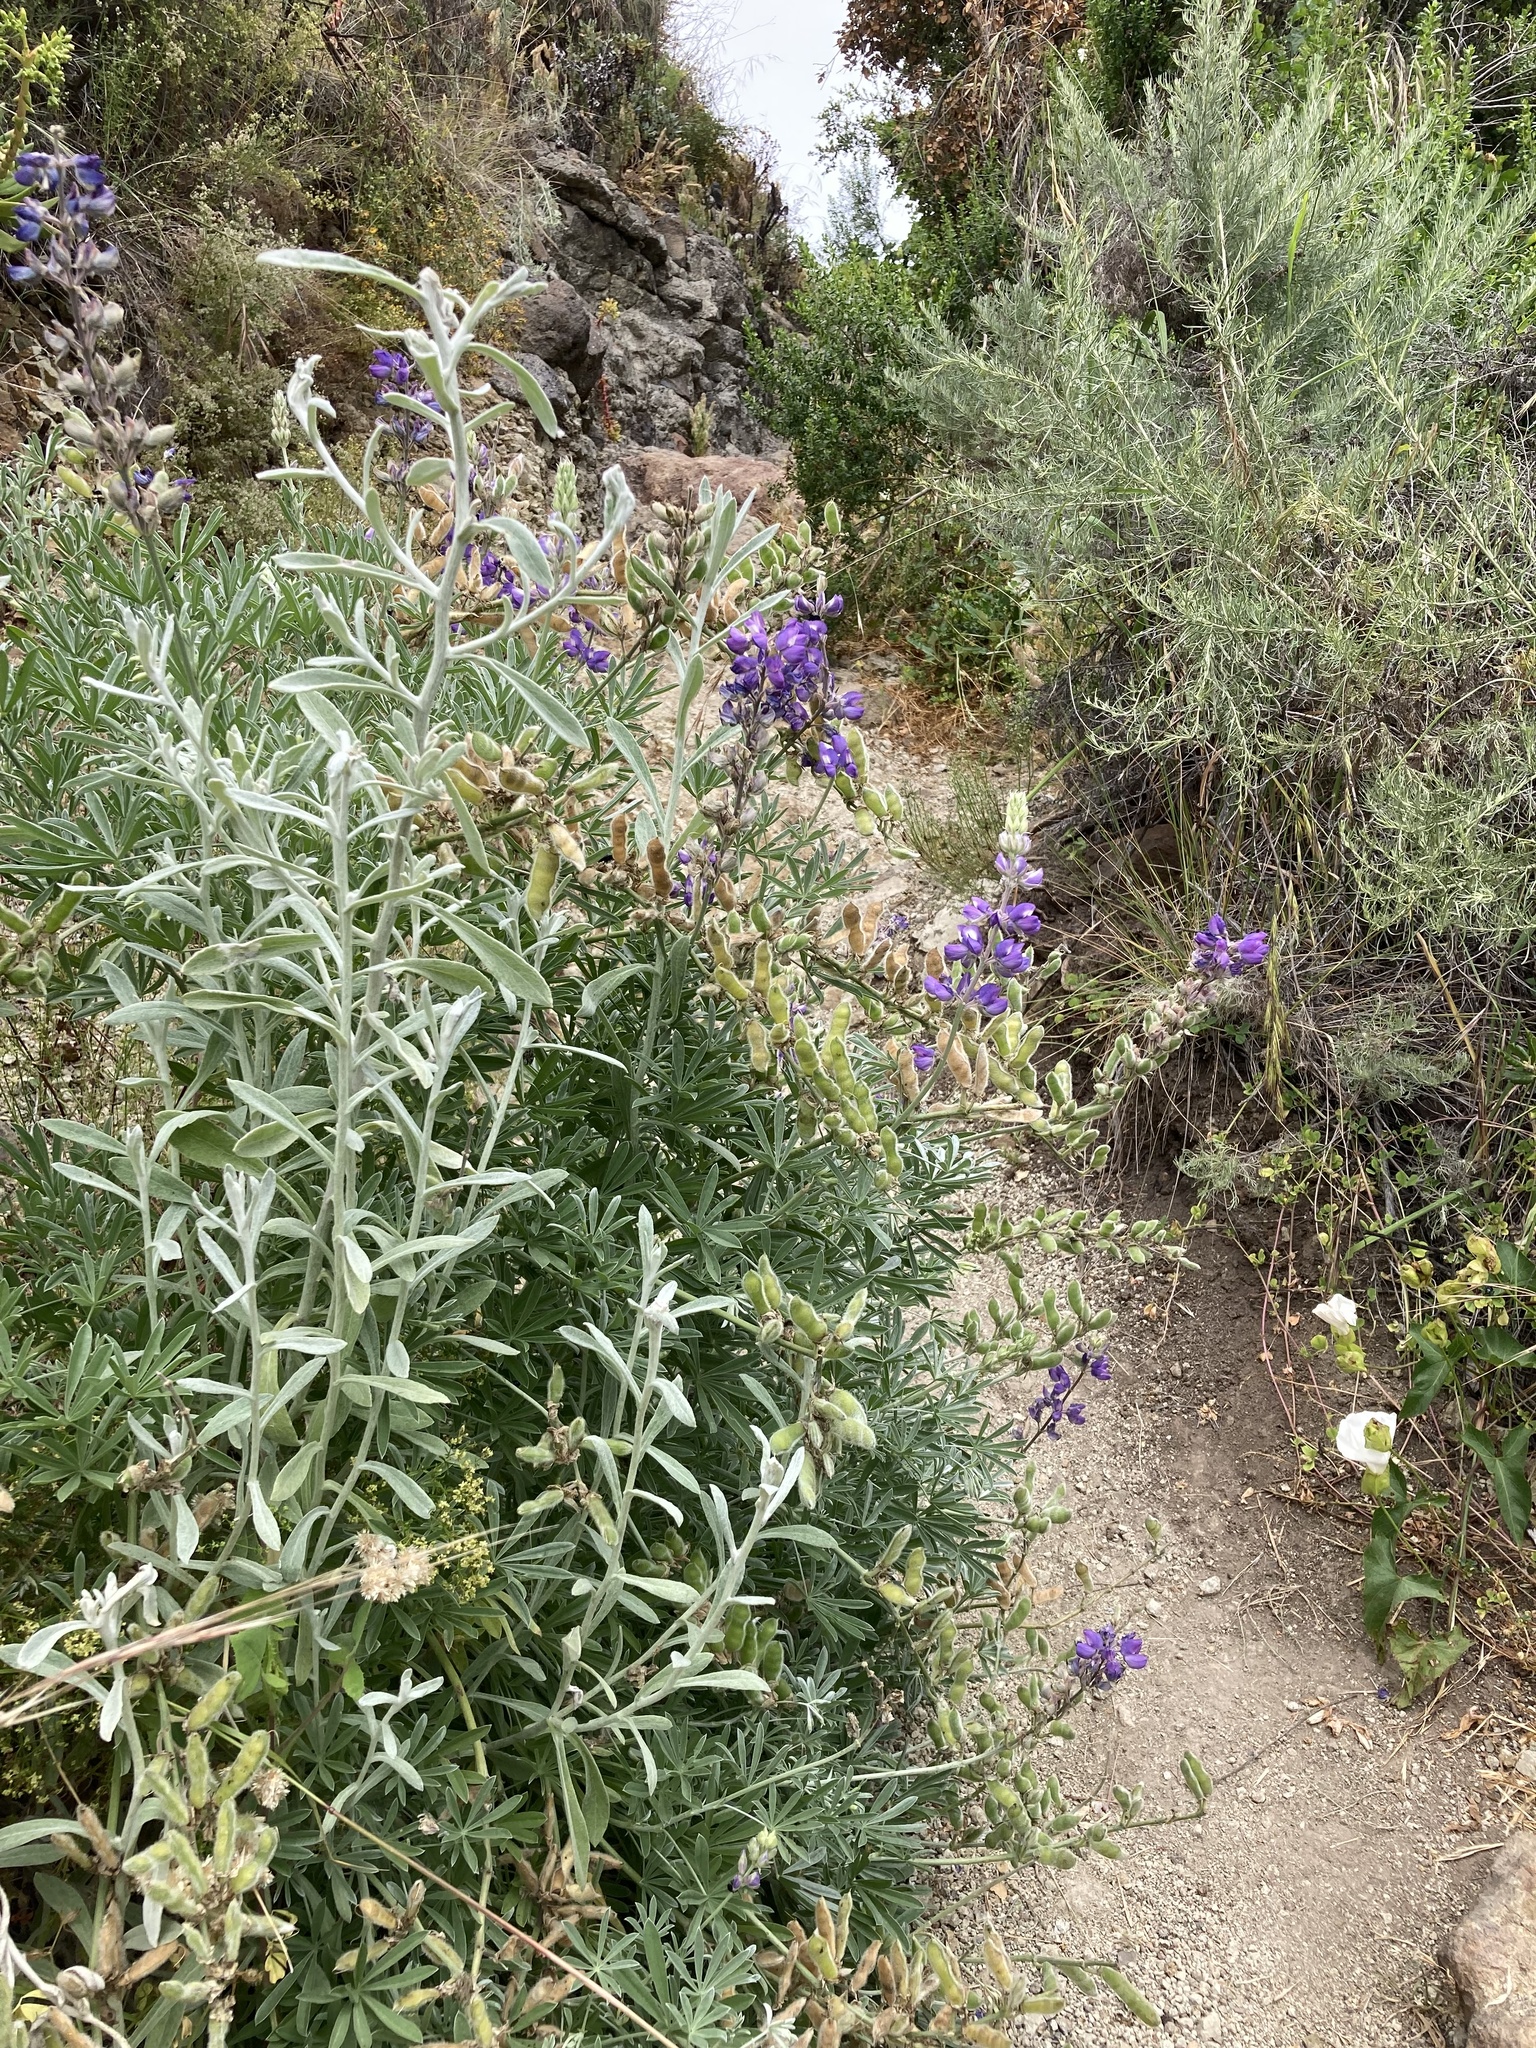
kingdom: Plantae
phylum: Tracheophyta
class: Magnoliopsida
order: Fabales
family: Fabaceae
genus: Lupinus
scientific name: Lupinus albifrons
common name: Foothill lupine
